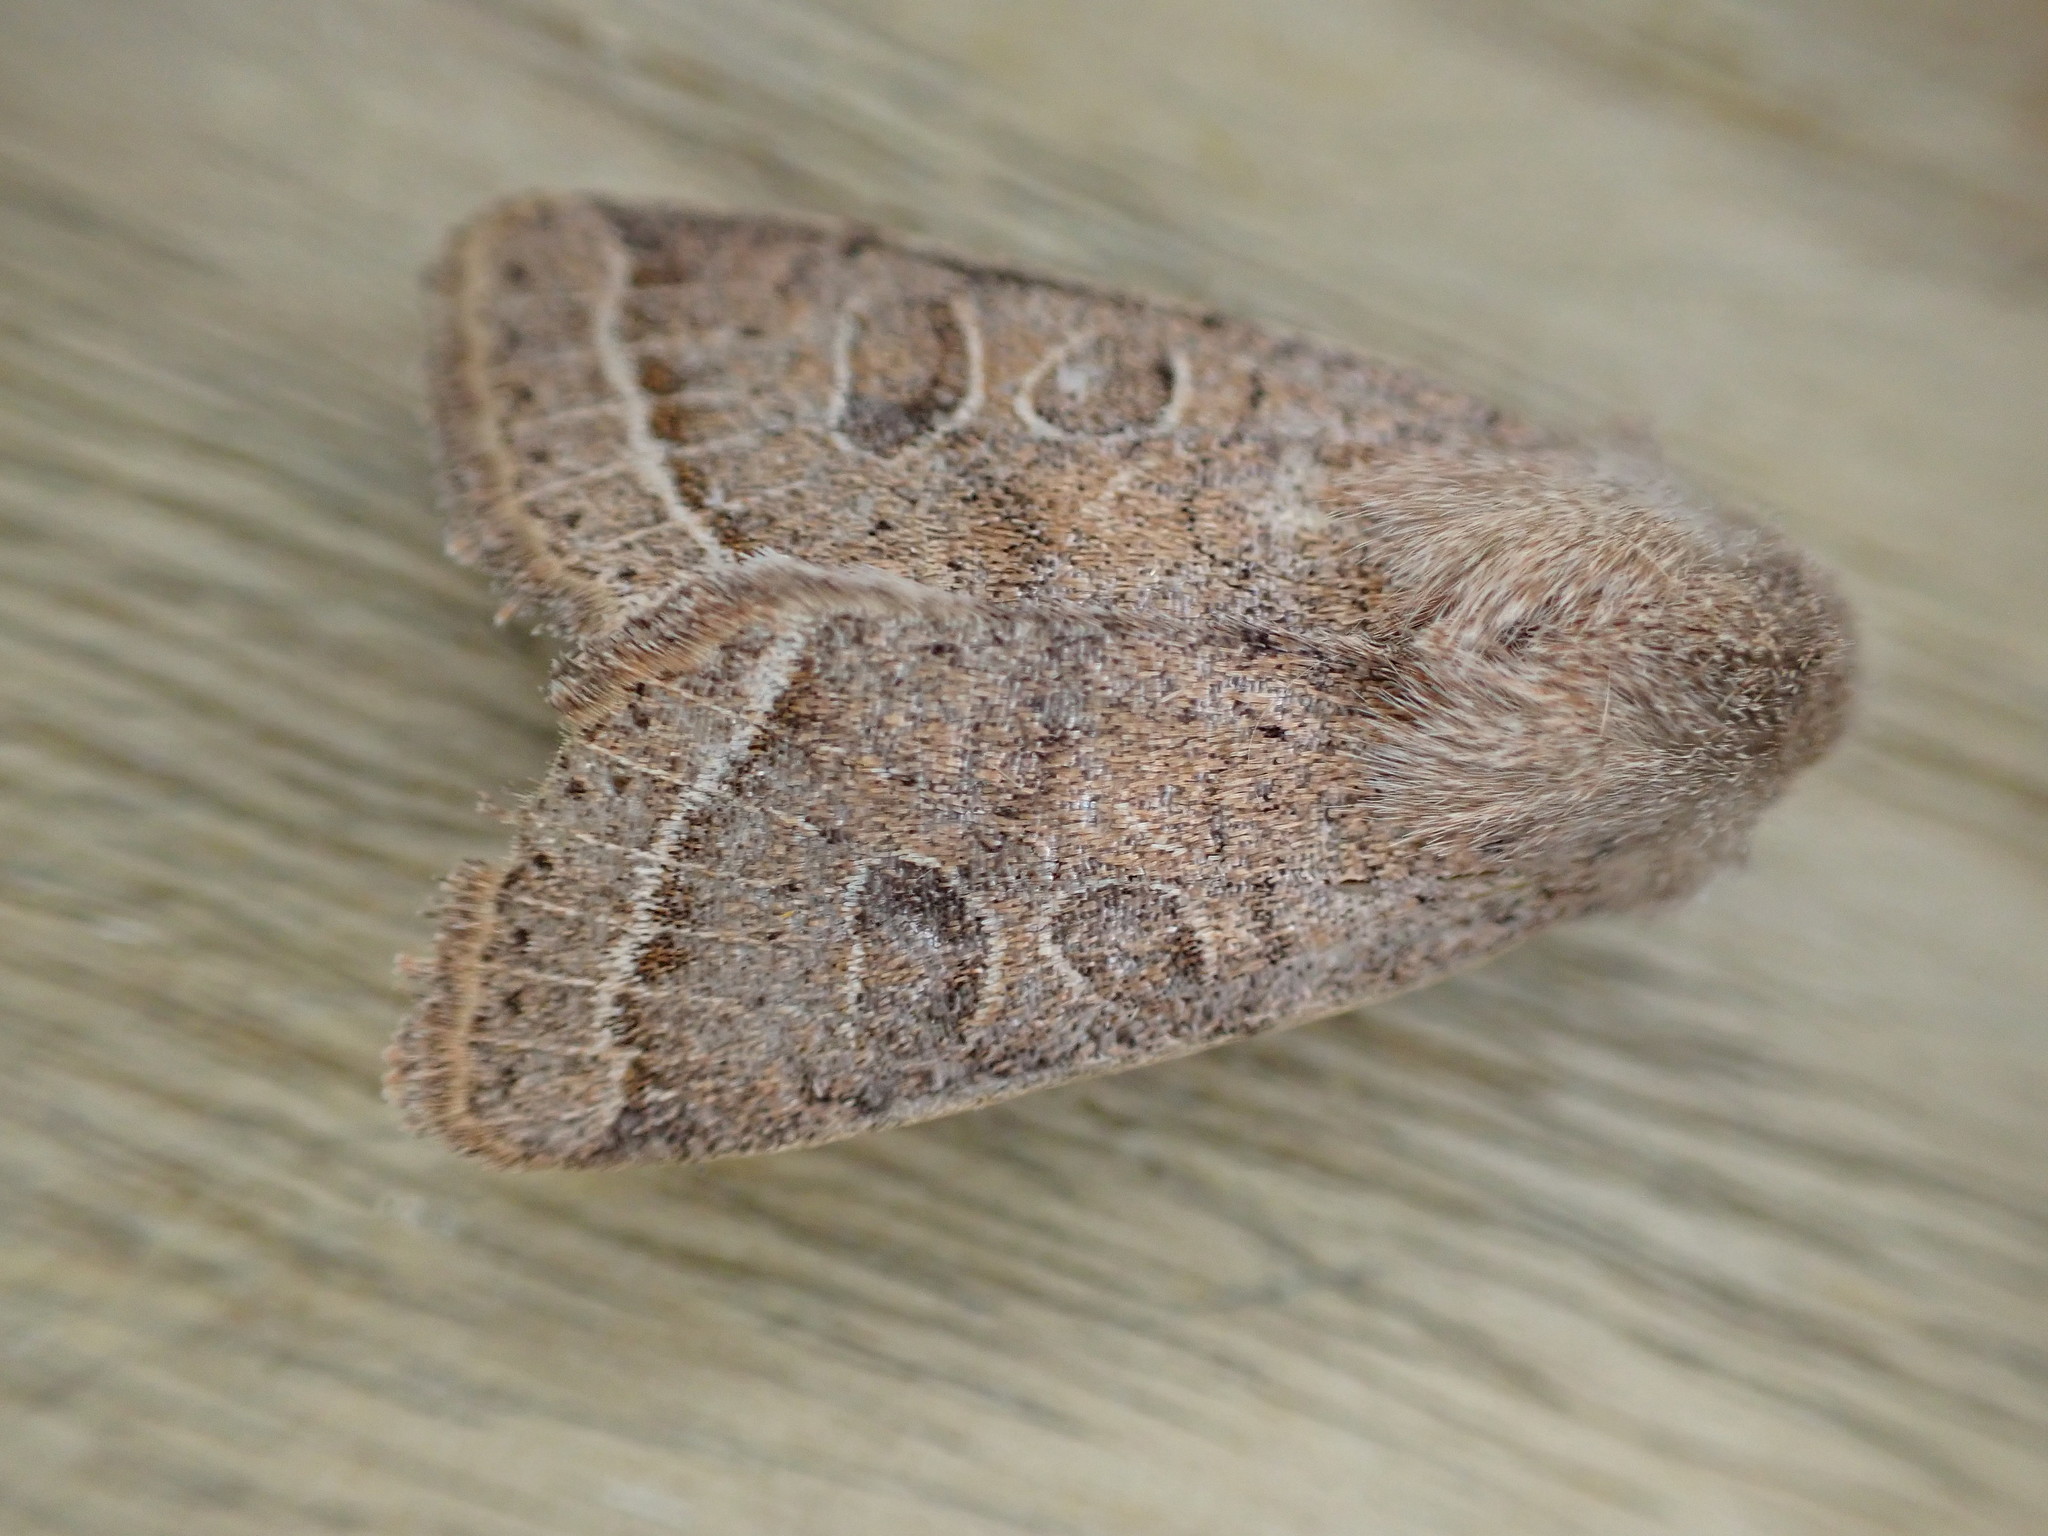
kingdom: Animalia
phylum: Arthropoda
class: Insecta
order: Lepidoptera
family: Noctuidae
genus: Orthosia
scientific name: Orthosia cerasi
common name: Common quaker
